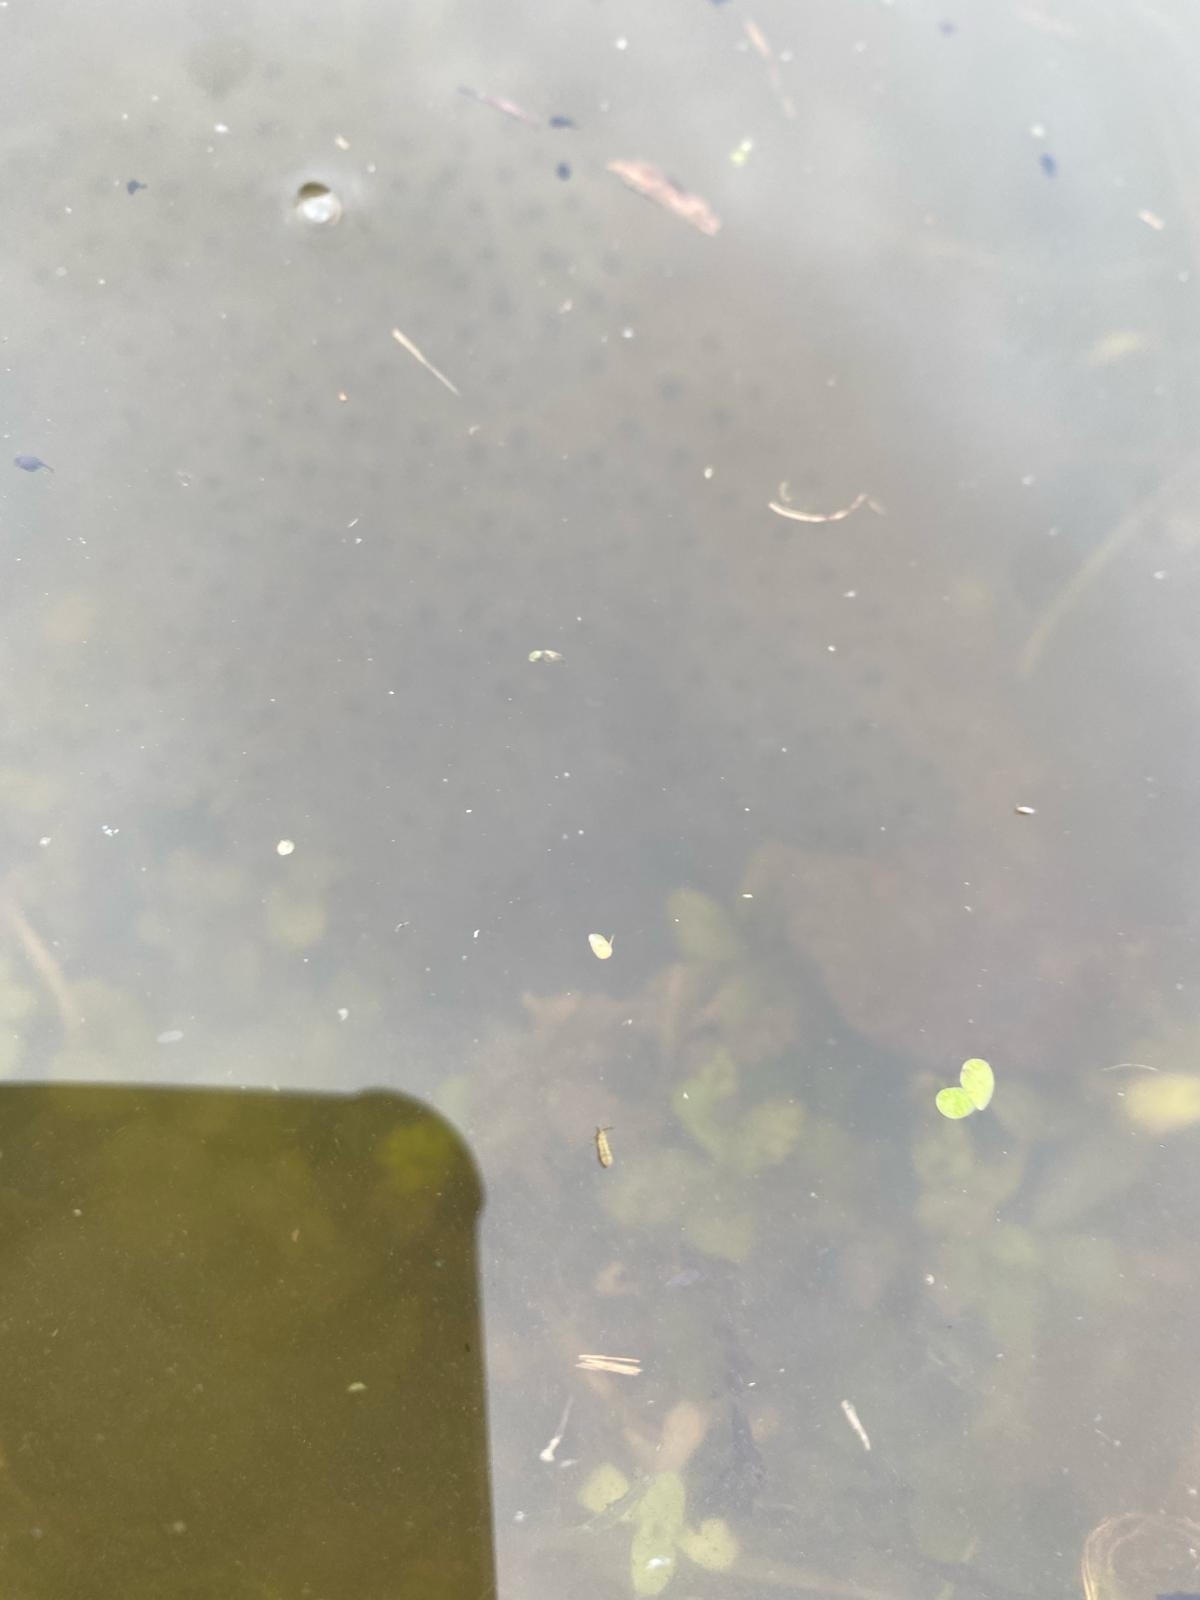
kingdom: Animalia
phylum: Chordata
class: Amphibia
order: Anura
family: Ranidae
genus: Rana
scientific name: Rana temporaria
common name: Common frog
